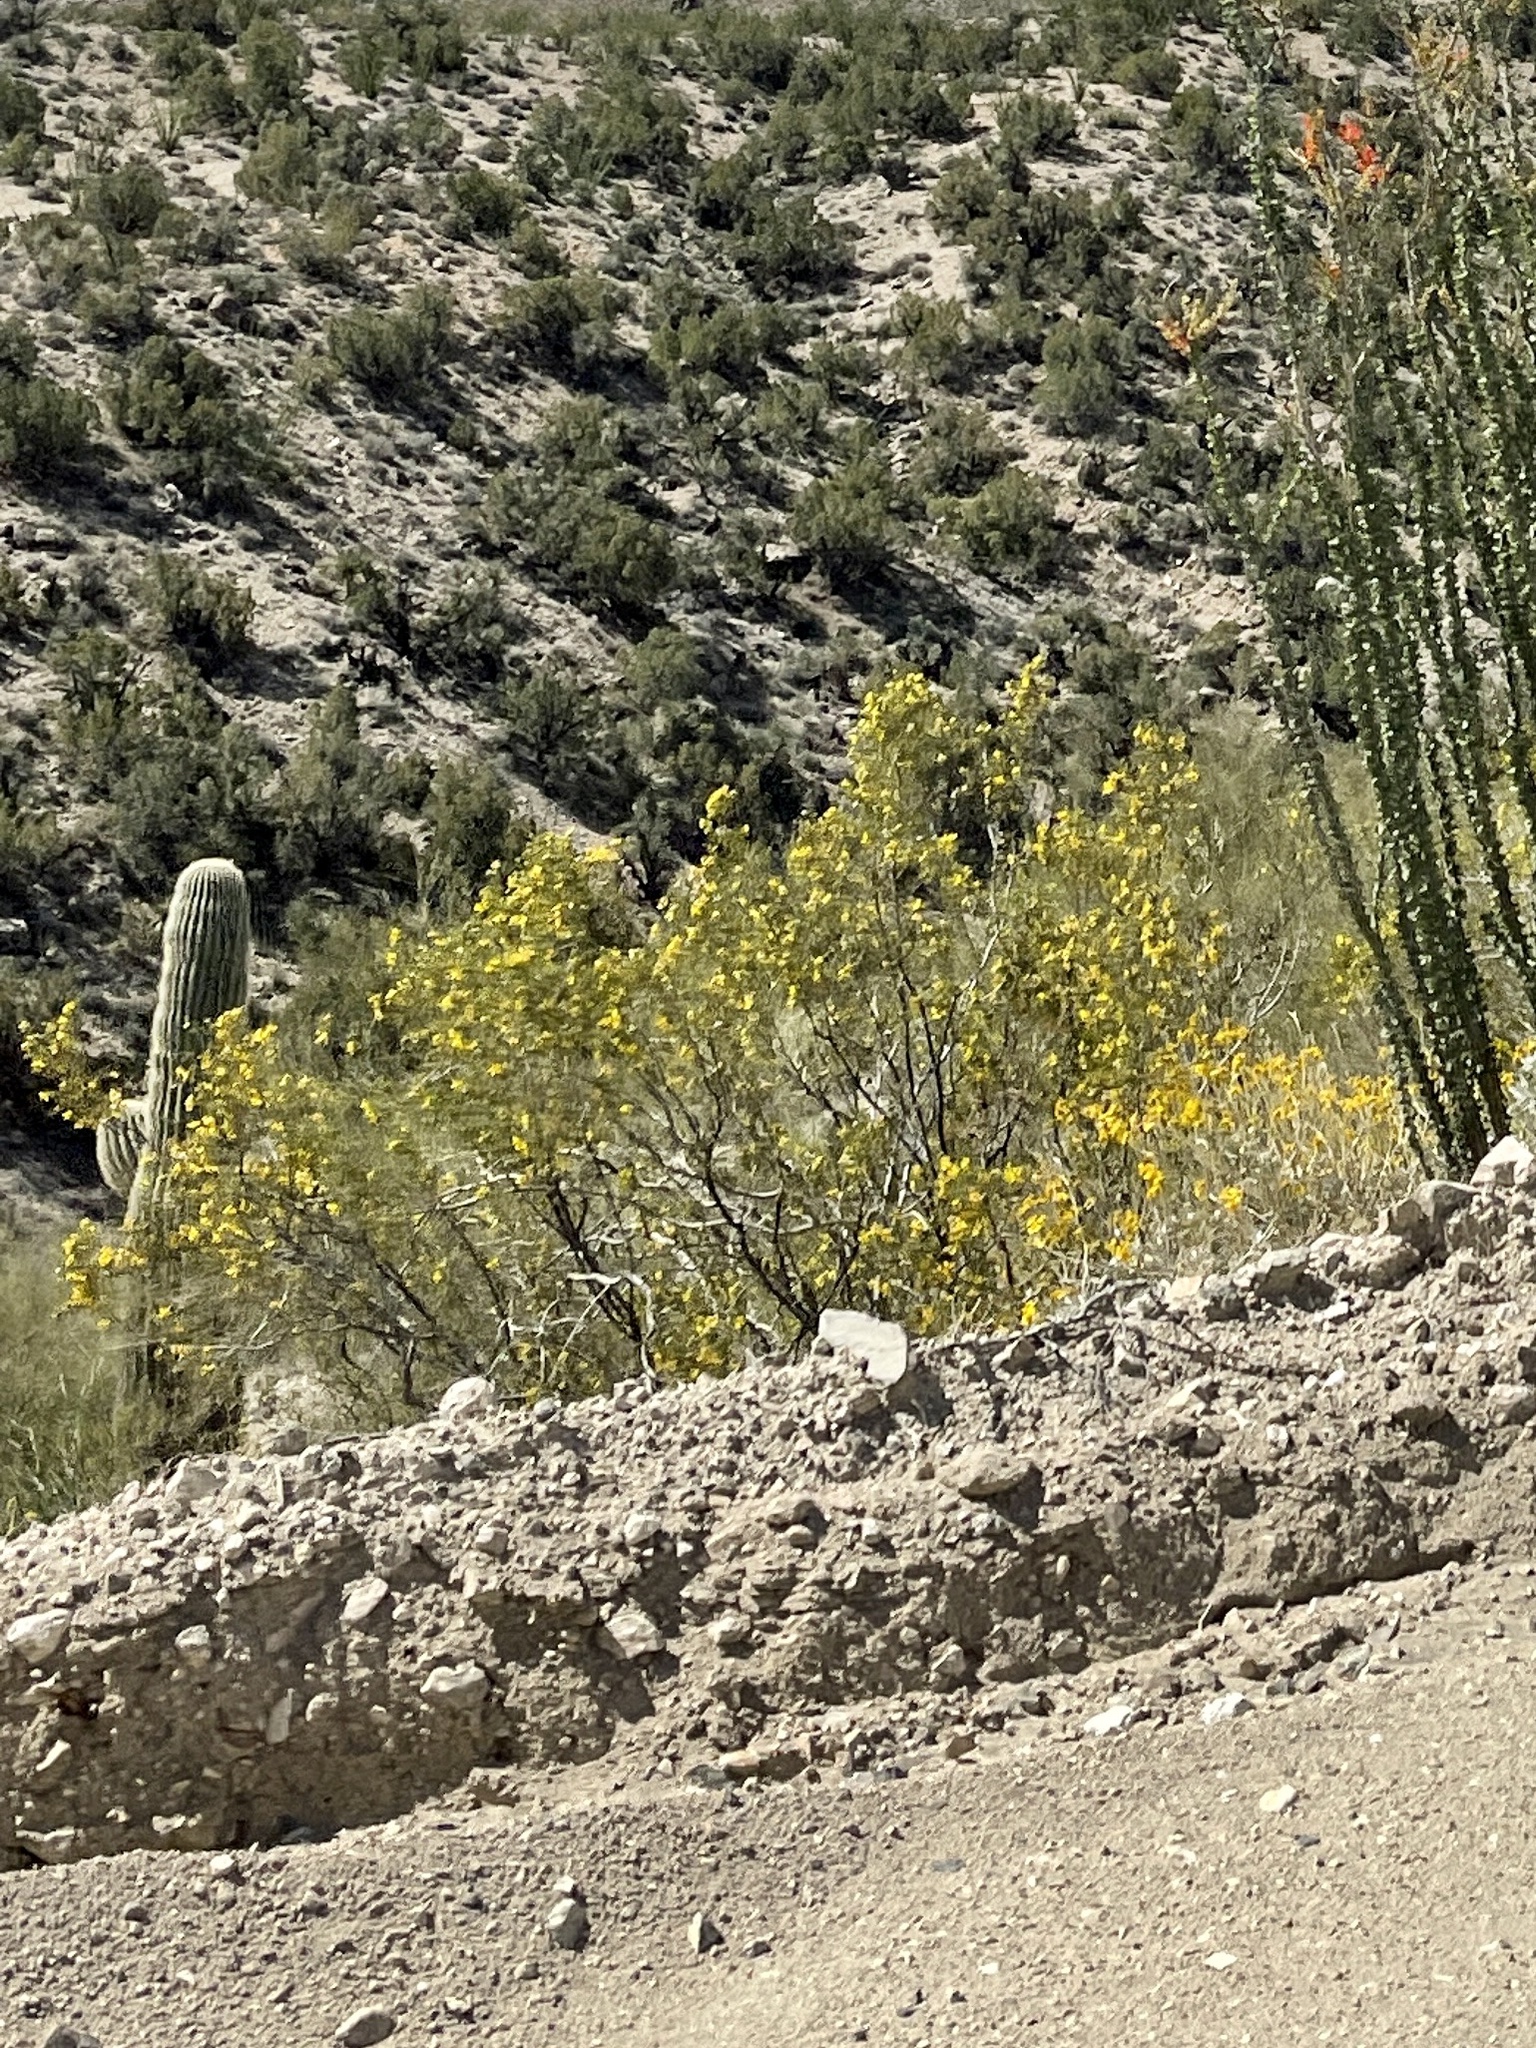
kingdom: Plantae
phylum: Tracheophyta
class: Magnoliopsida
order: Zygophyllales
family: Zygophyllaceae
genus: Larrea
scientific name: Larrea tridentata
